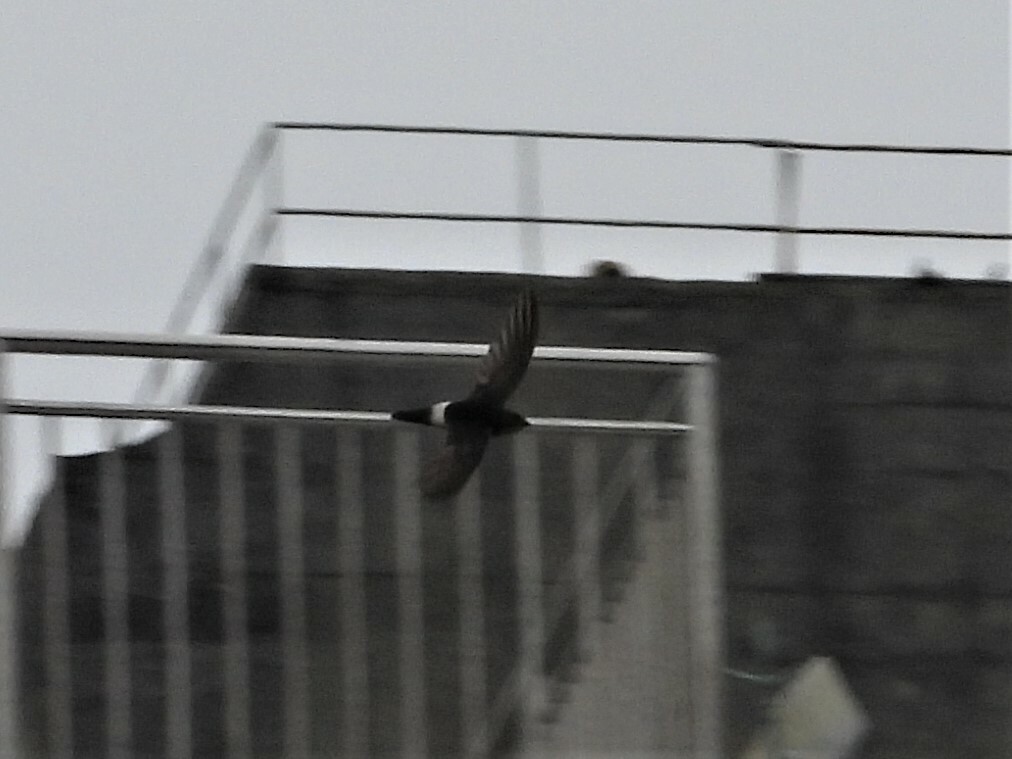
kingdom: Animalia
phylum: Chordata
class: Aves
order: Apodiformes
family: Apodidae
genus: Apus
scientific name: Apus nipalensis
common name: House swift
